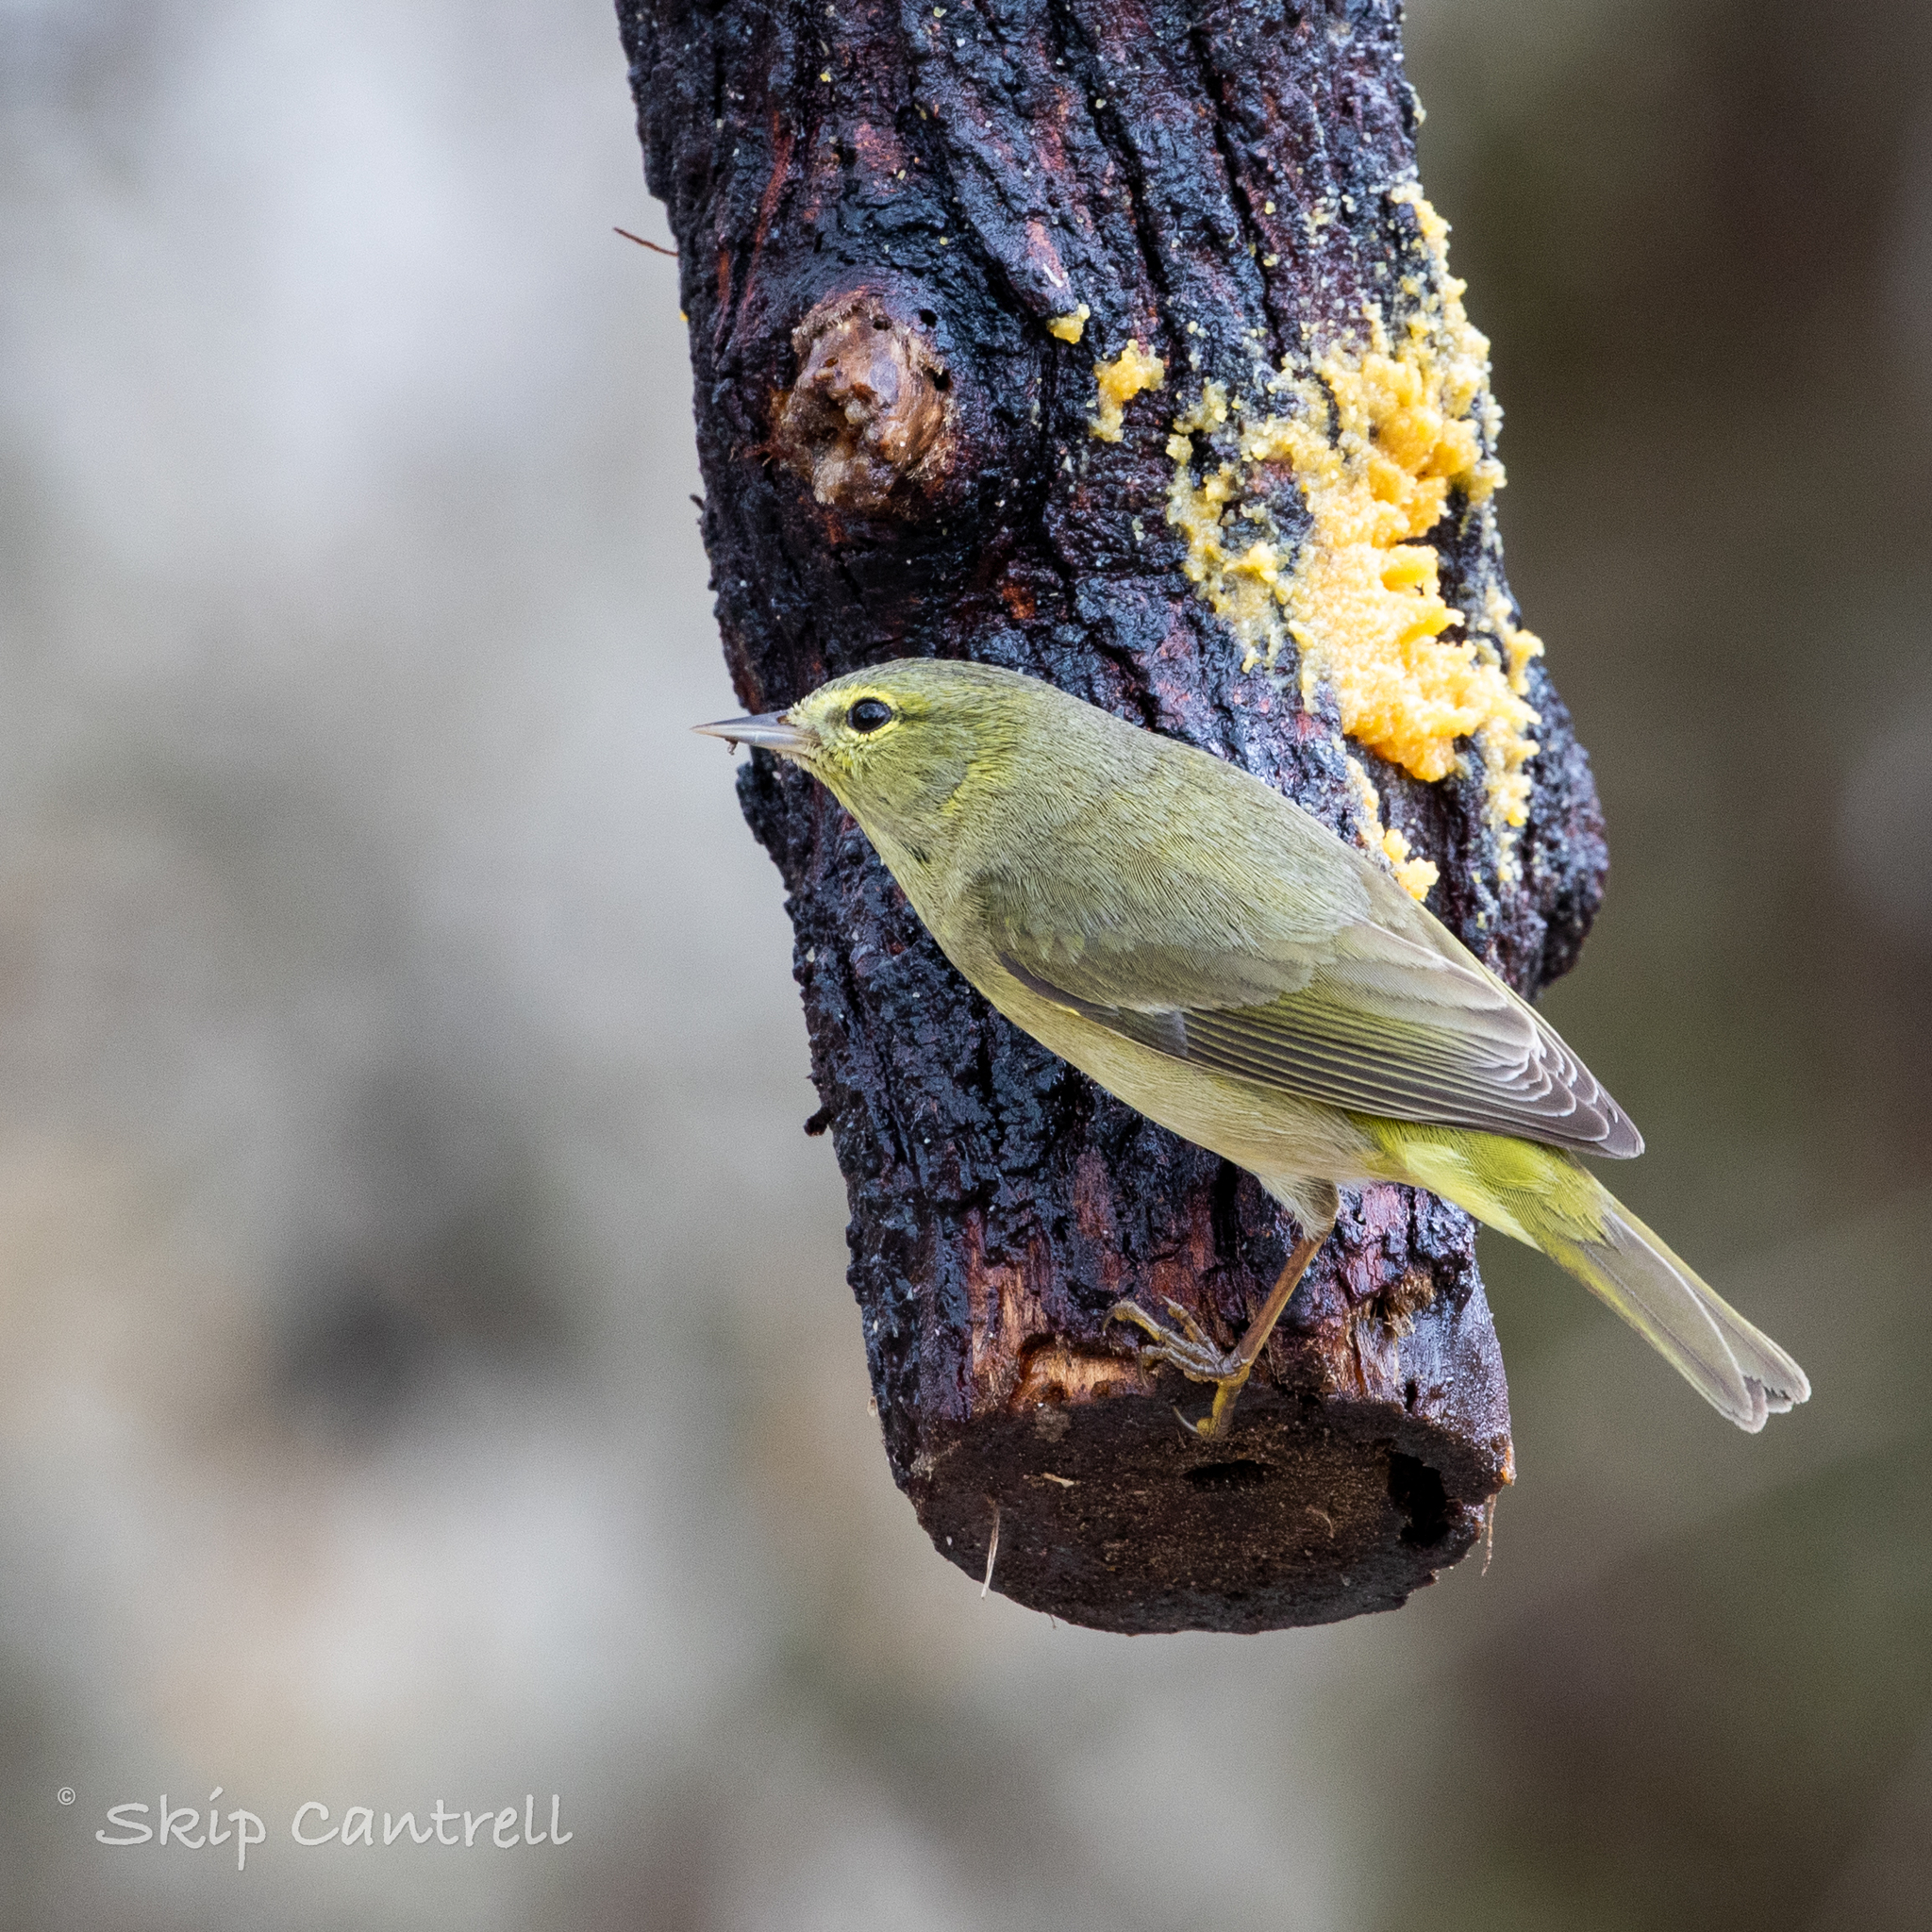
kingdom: Animalia
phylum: Chordata
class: Aves
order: Passeriformes
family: Parulidae
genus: Leiothlypis
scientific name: Leiothlypis celata
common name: Orange-crowned warbler
